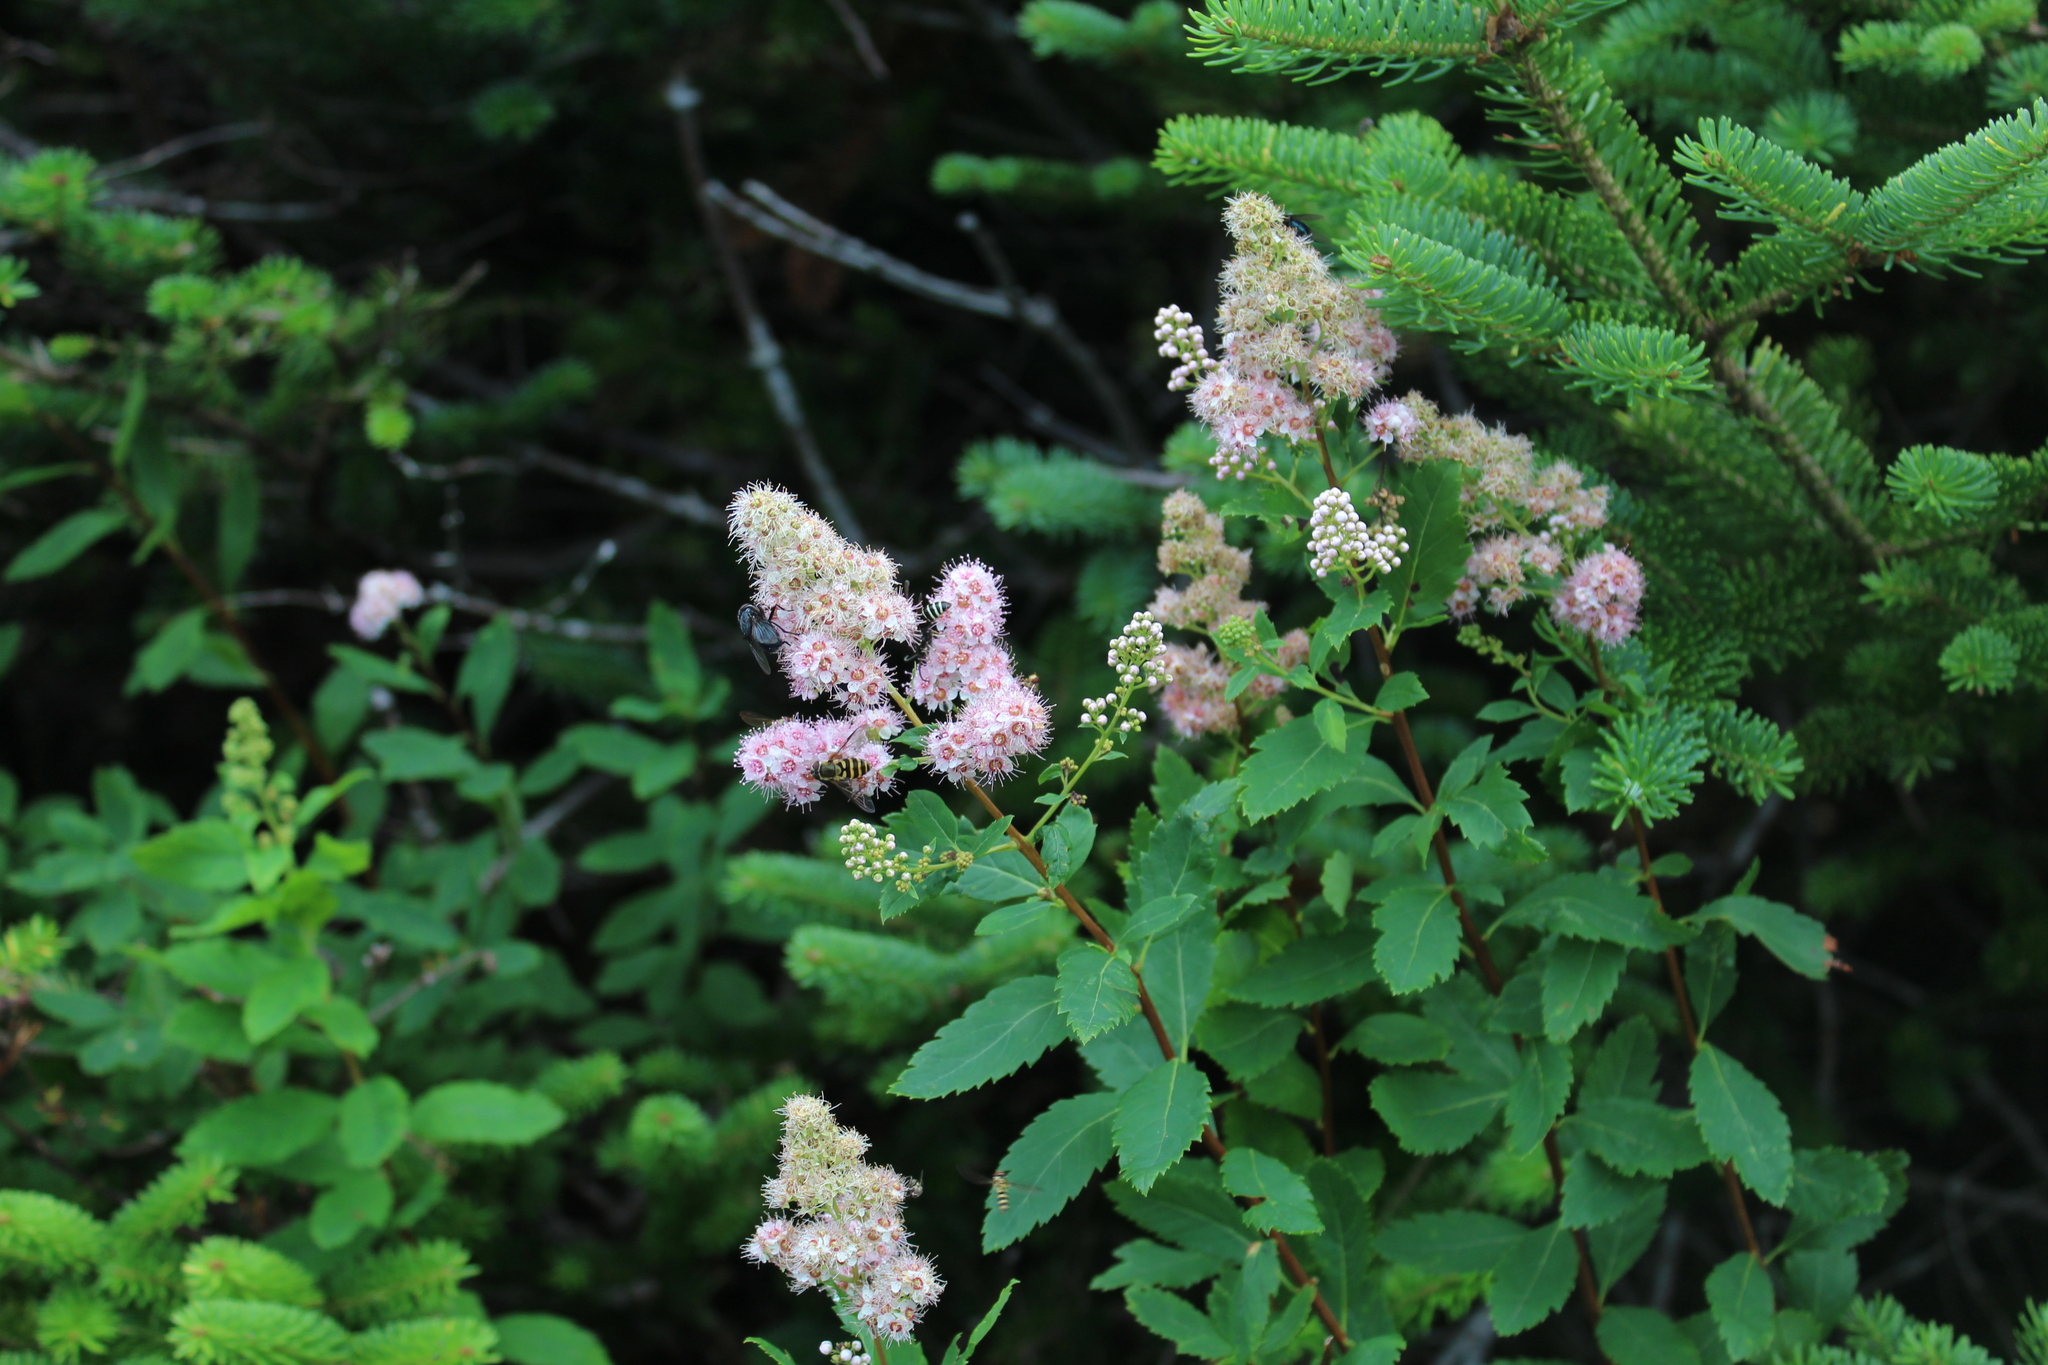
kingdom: Plantae
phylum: Tracheophyta
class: Magnoliopsida
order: Rosales
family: Rosaceae
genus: Spiraea
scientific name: Spiraea alba
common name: Pale bridewort
